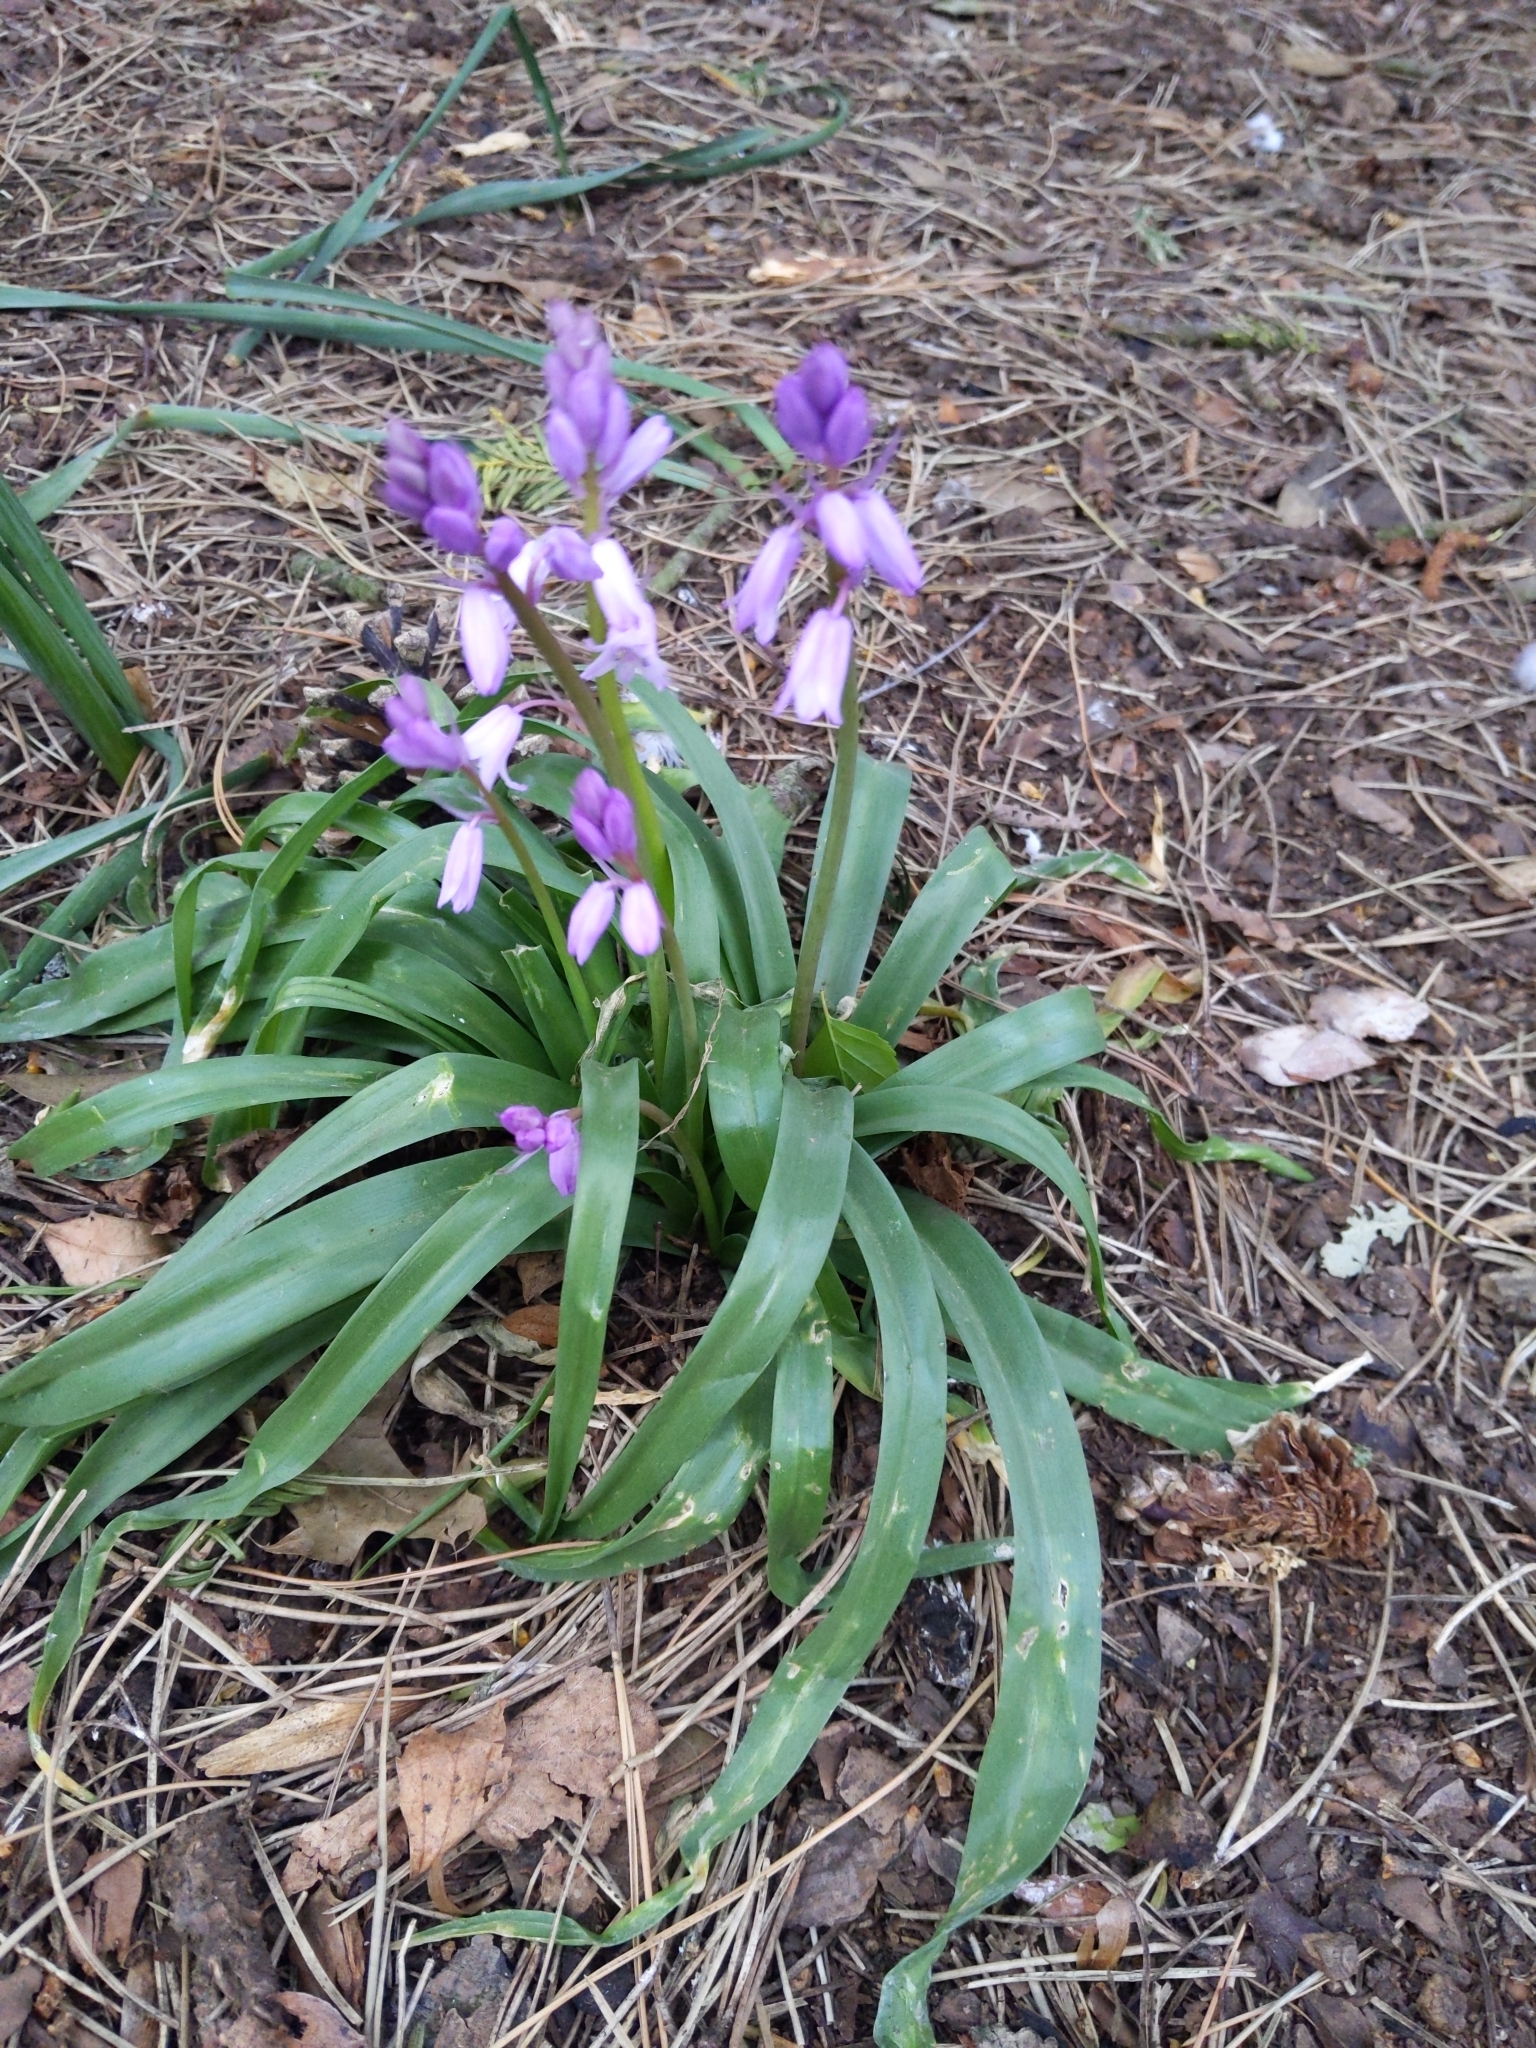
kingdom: Plantae
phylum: Tracheophyta
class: Liliopsida
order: Asparagales
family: Asparagaceae
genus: Hyacinthoides
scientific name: Hyacinthoides massartiana
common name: Hyacinthoides
